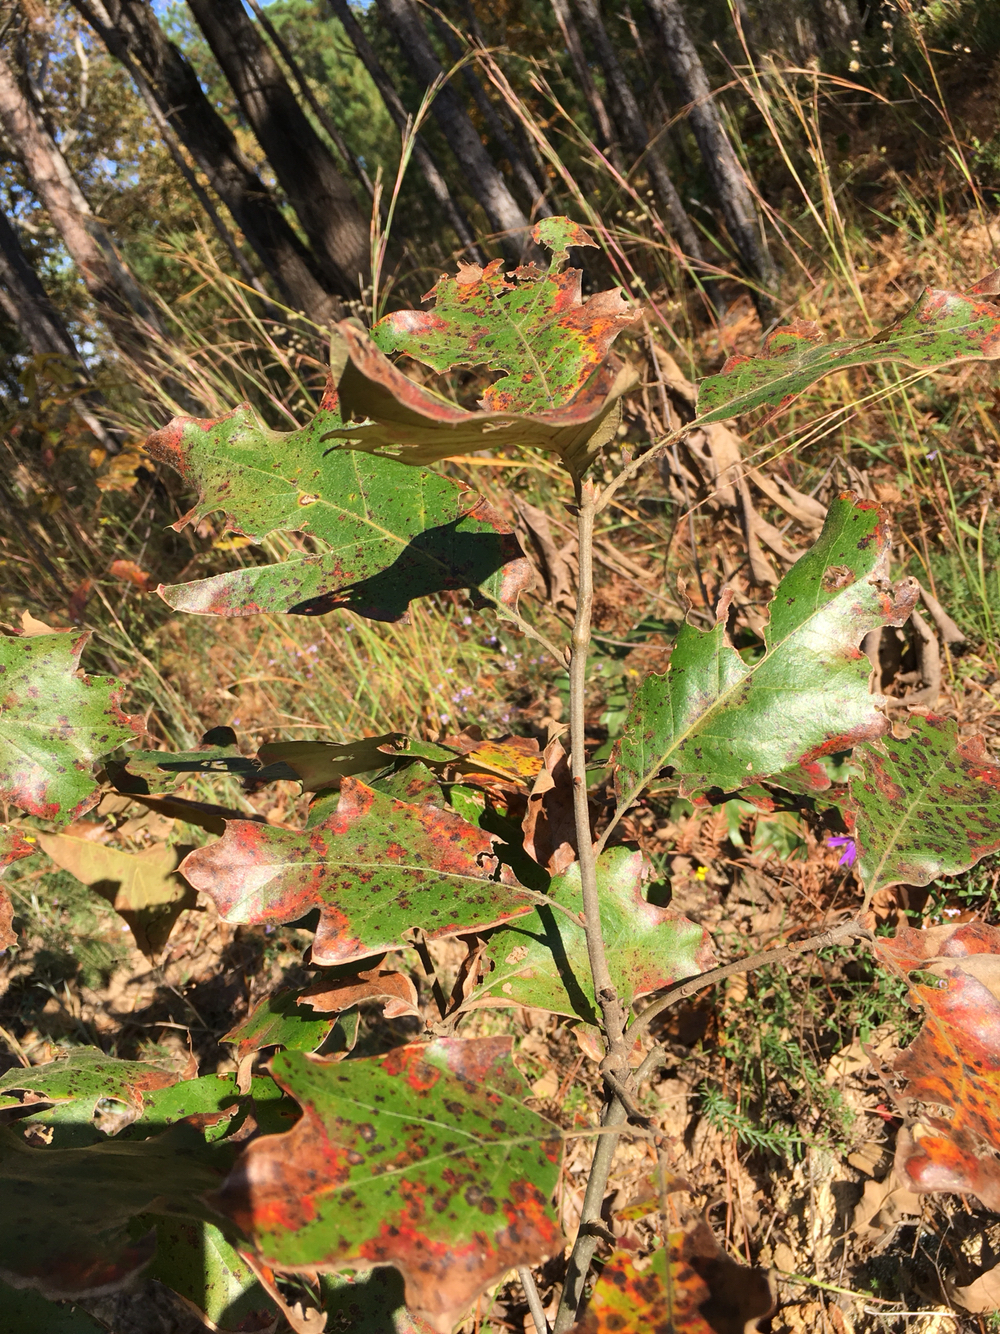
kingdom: Plantae
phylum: Tracheophyta
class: Magnoliopsida
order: Fagales
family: Fagaceae
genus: Quercus
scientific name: Quercus falcata
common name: Southern red oak
